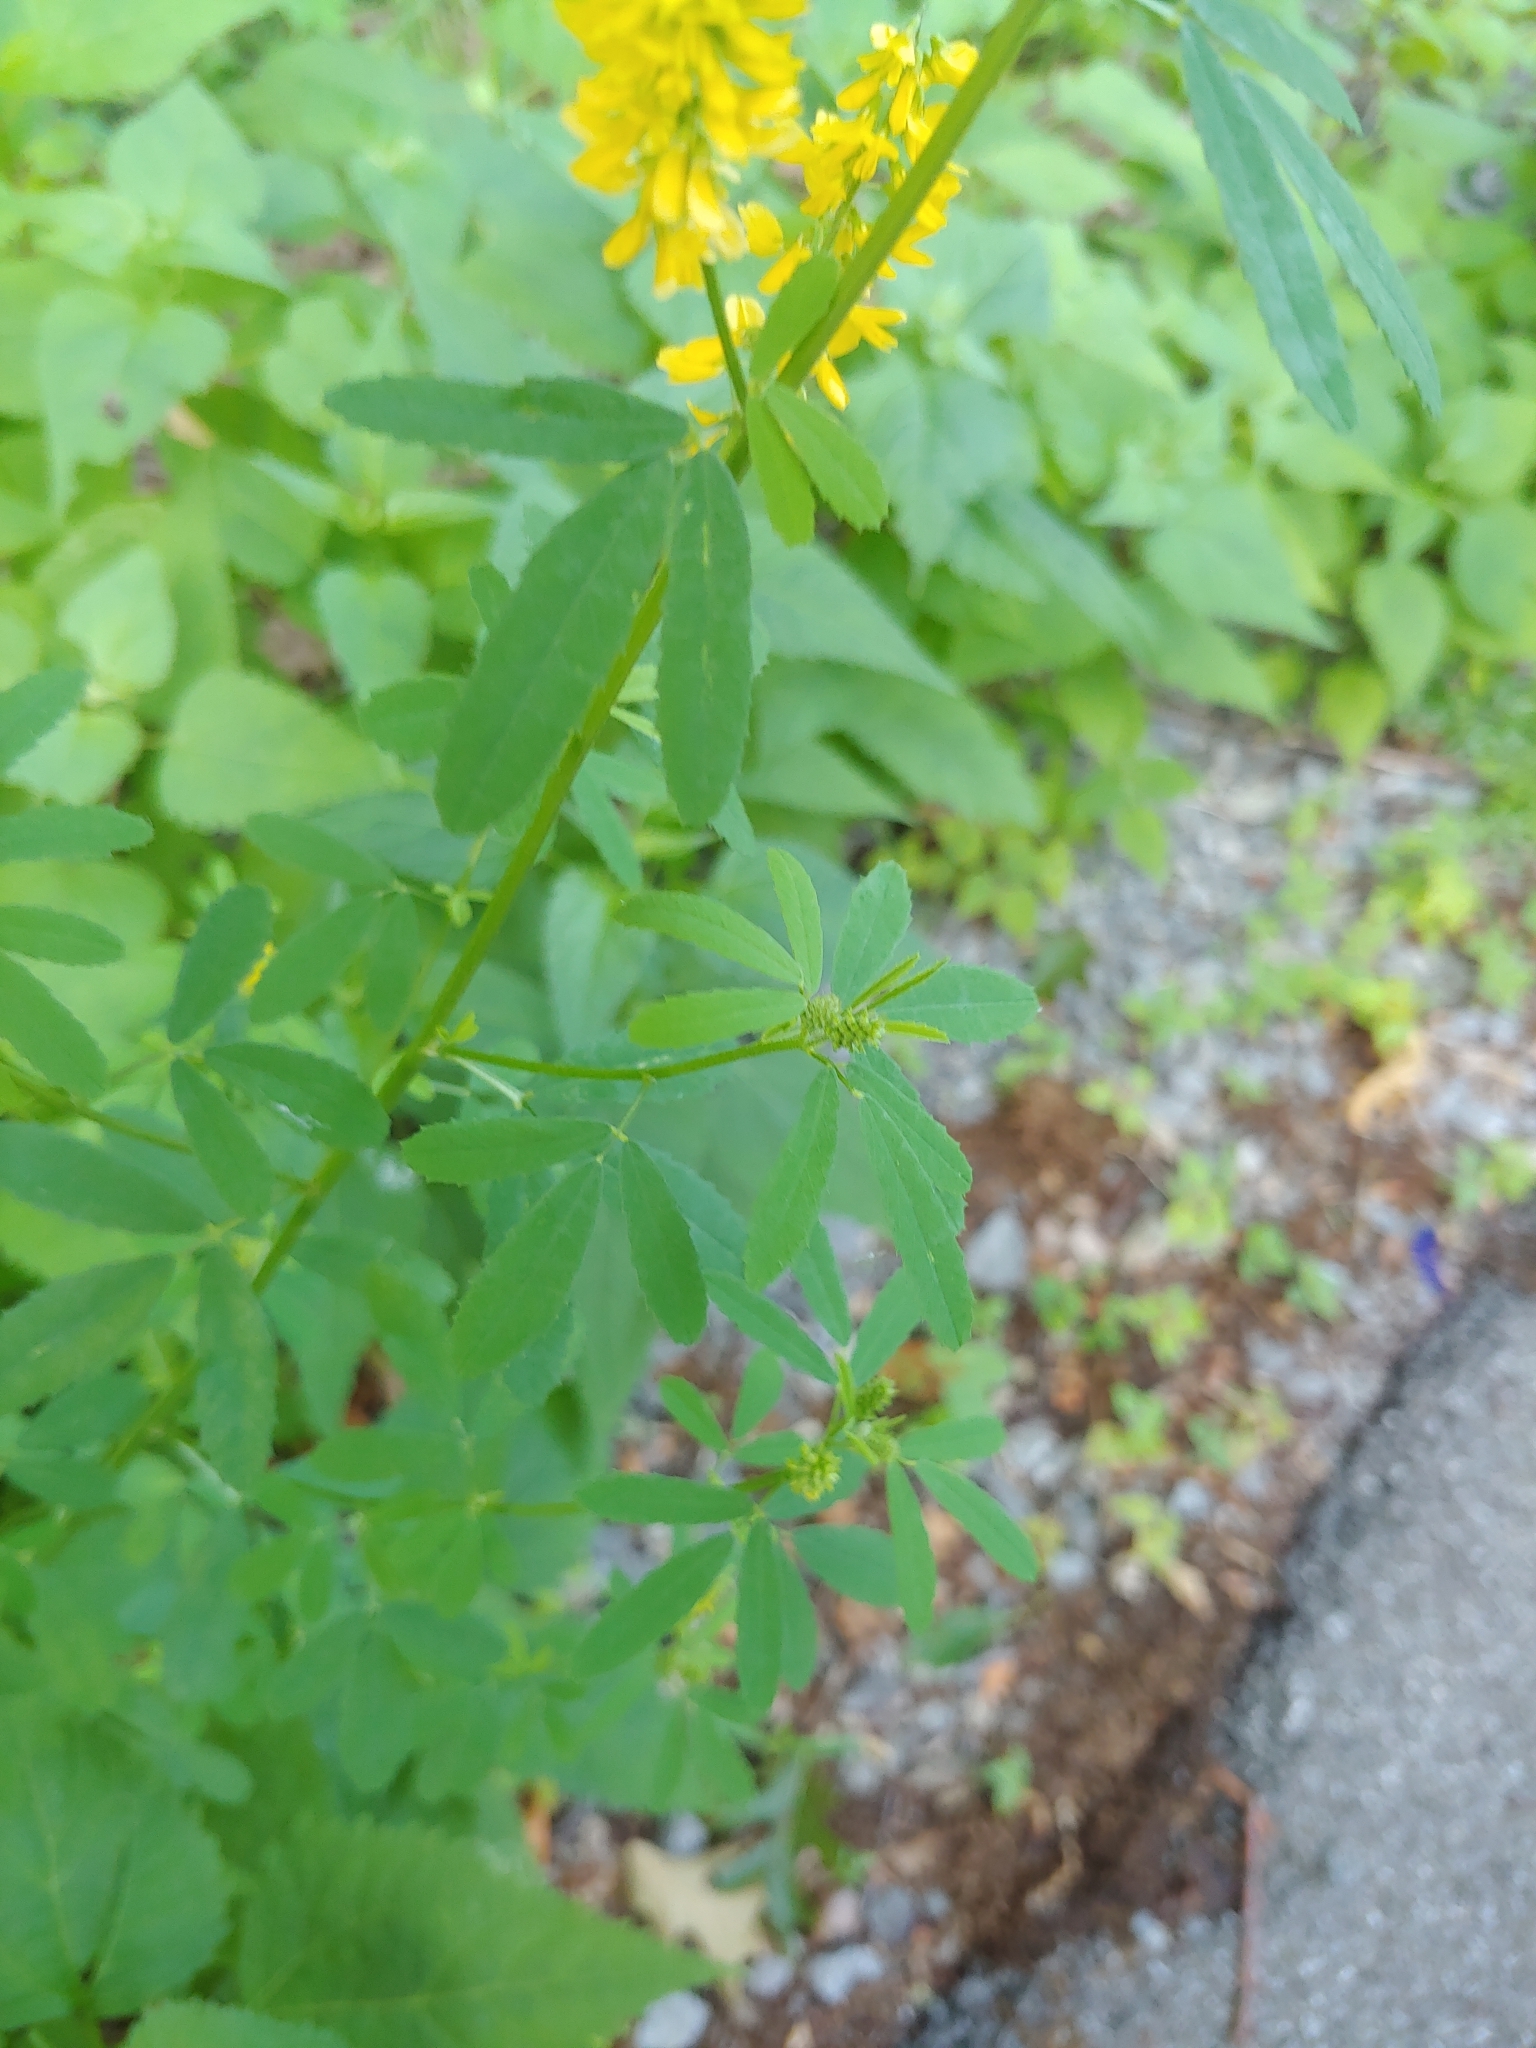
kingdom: Plantae
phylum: Tracheophyta
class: Magnoliopsida
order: Fabales
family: Fabaceae
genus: Melilotus
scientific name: Melilotus officinalis
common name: Sweetclover
